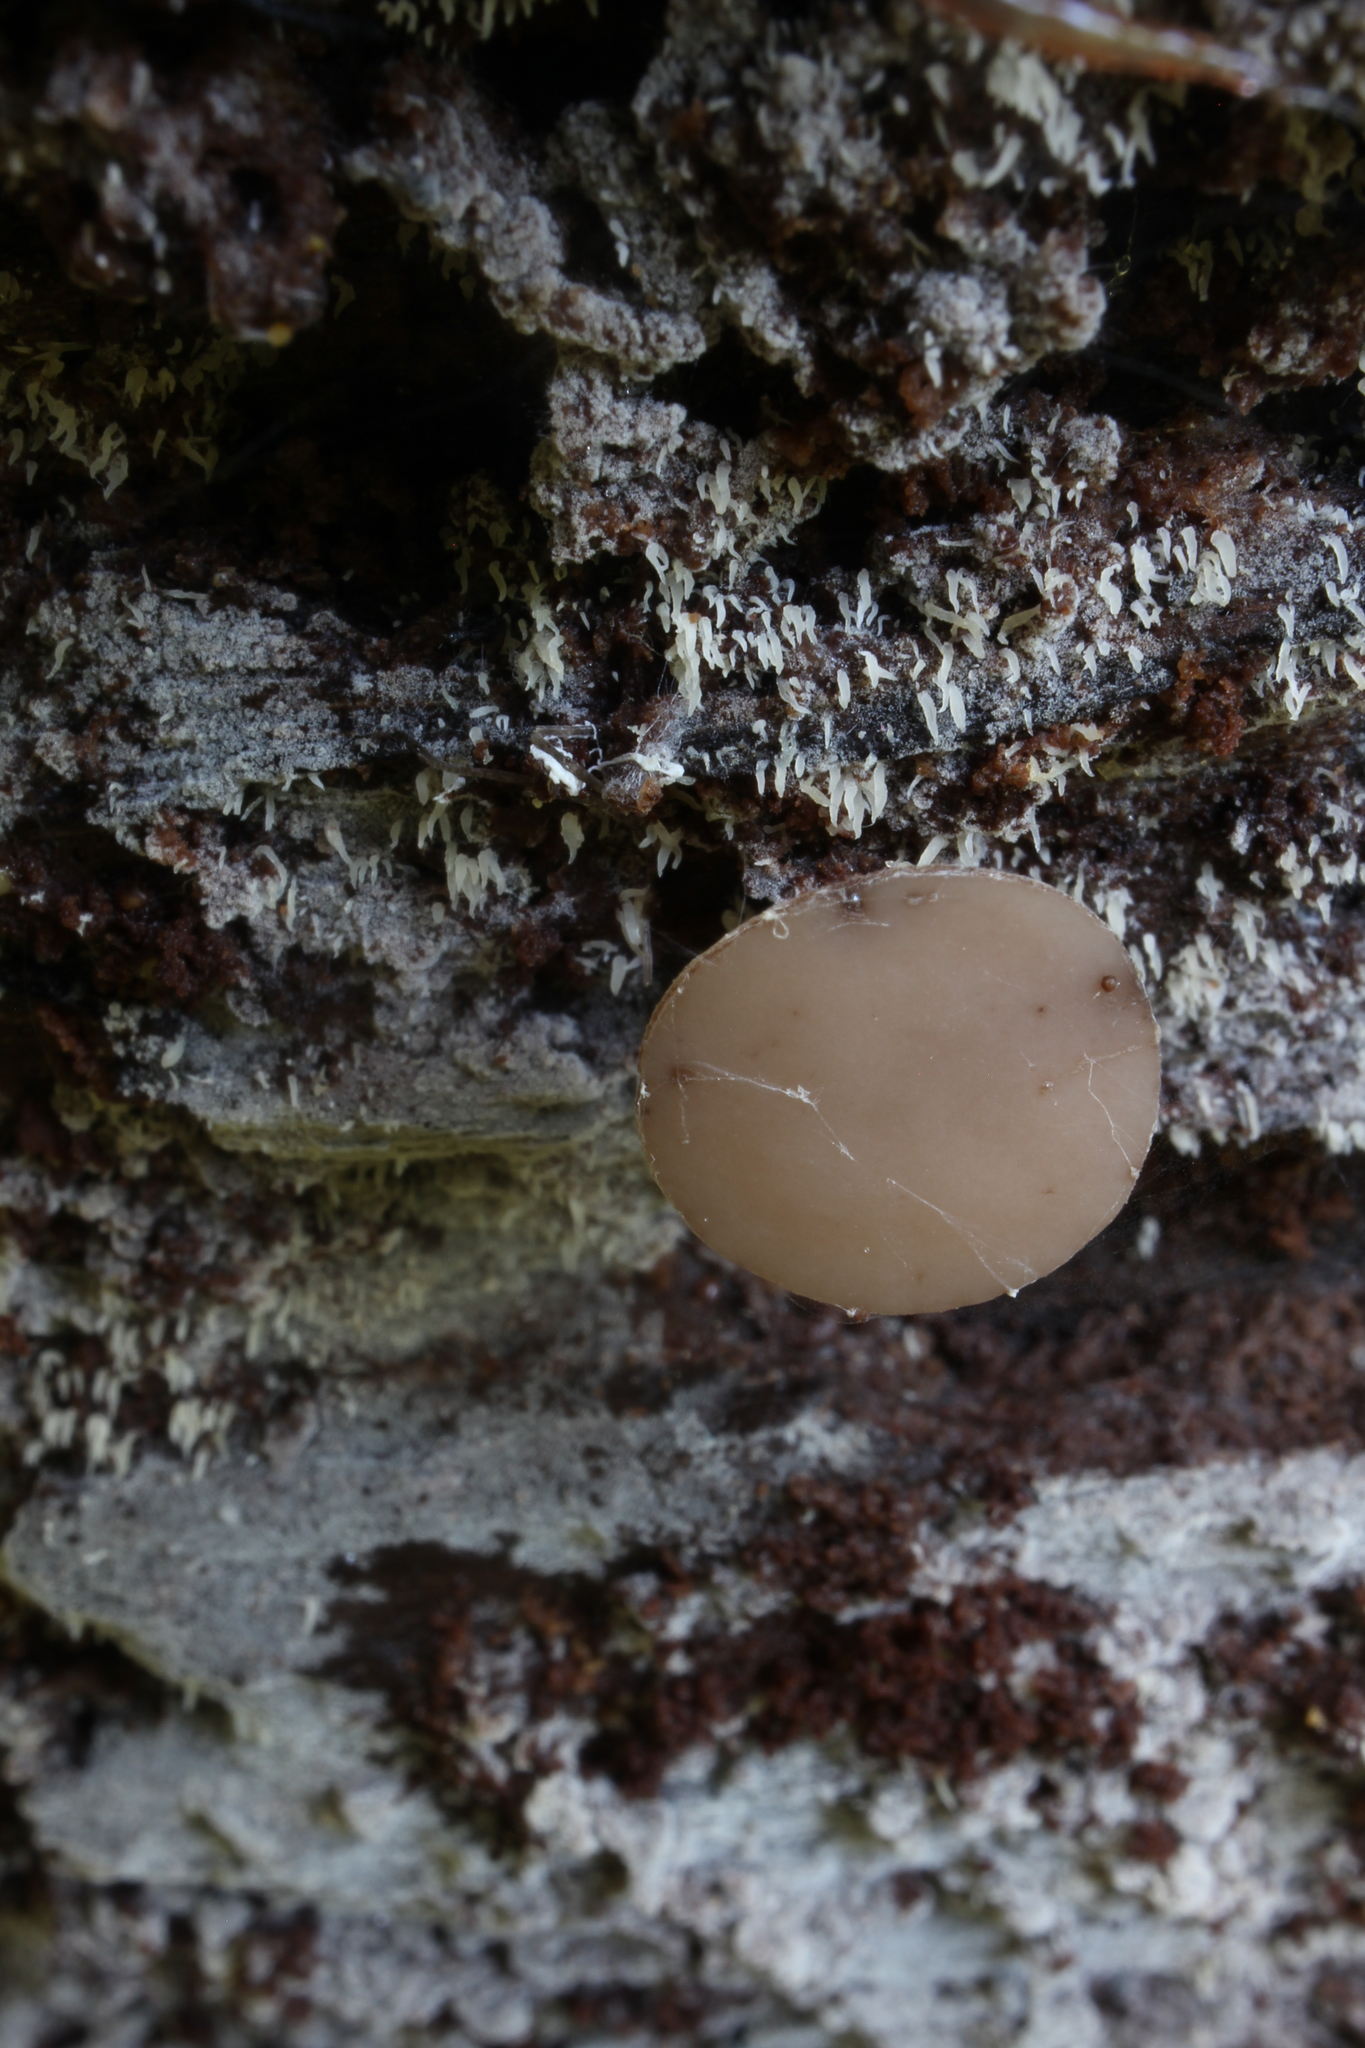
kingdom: Fungi
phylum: Ascomycota
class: Leotiomycetes
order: Helotiales
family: Helotiaceae
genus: Tatraea
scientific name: Tatraea macrospora
